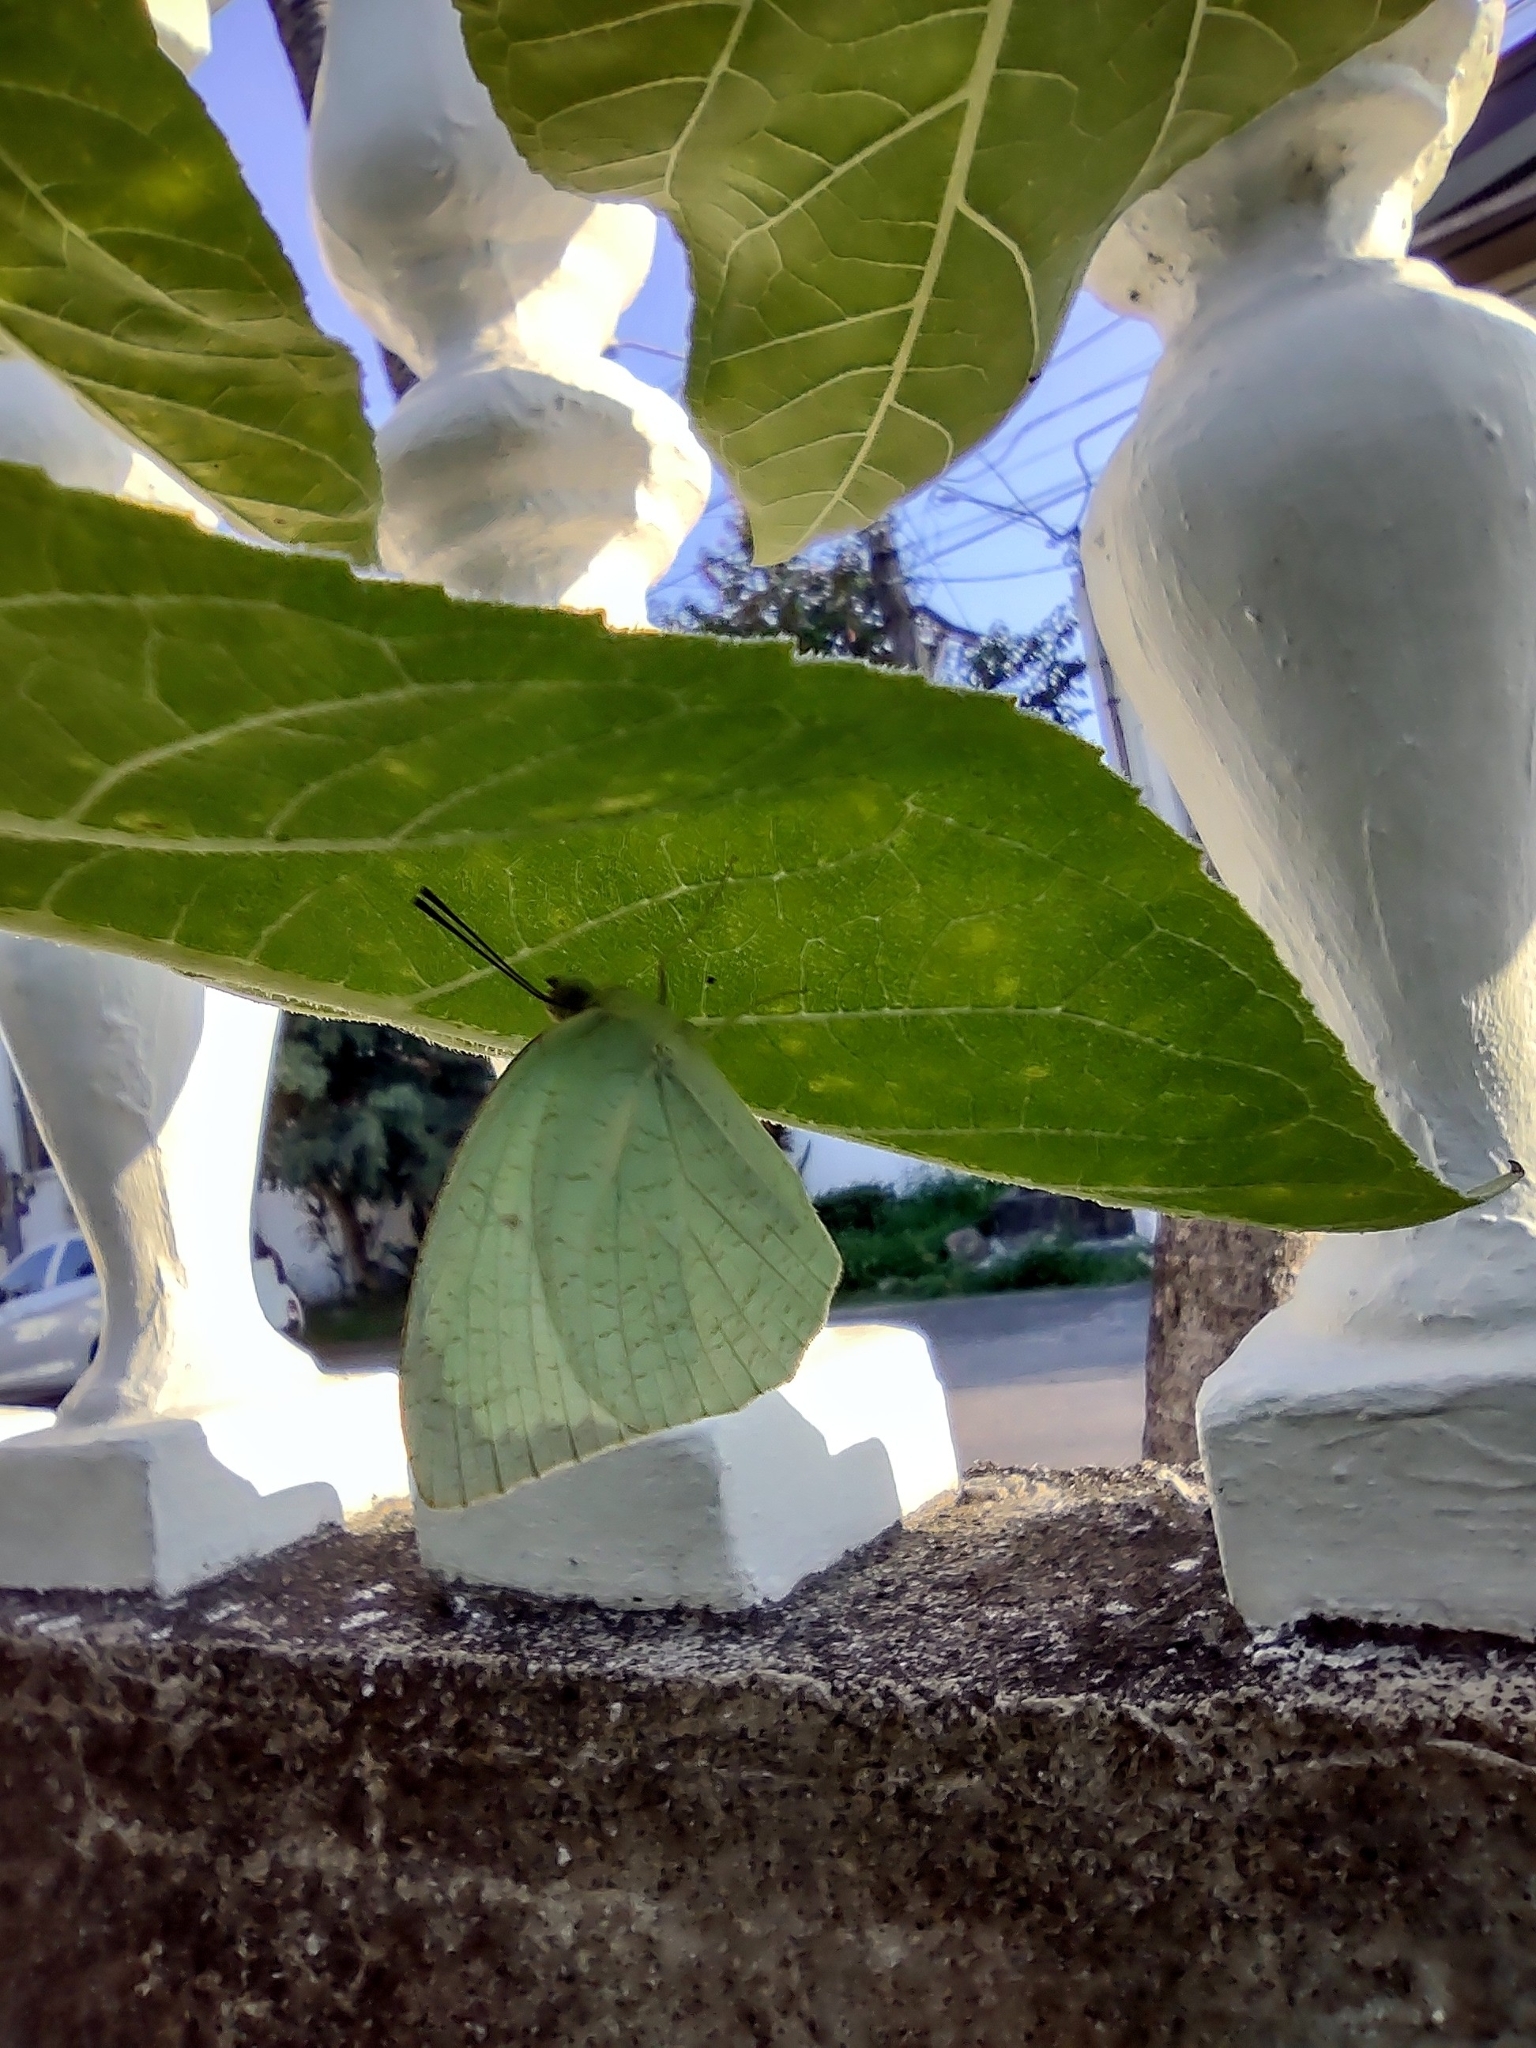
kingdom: Animalia
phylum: Arthropoda
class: Insecta
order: Lepidoptera
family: Pieridae
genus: Catopsilia
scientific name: Catopsilia pyranthe
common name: Mottled emigrant
